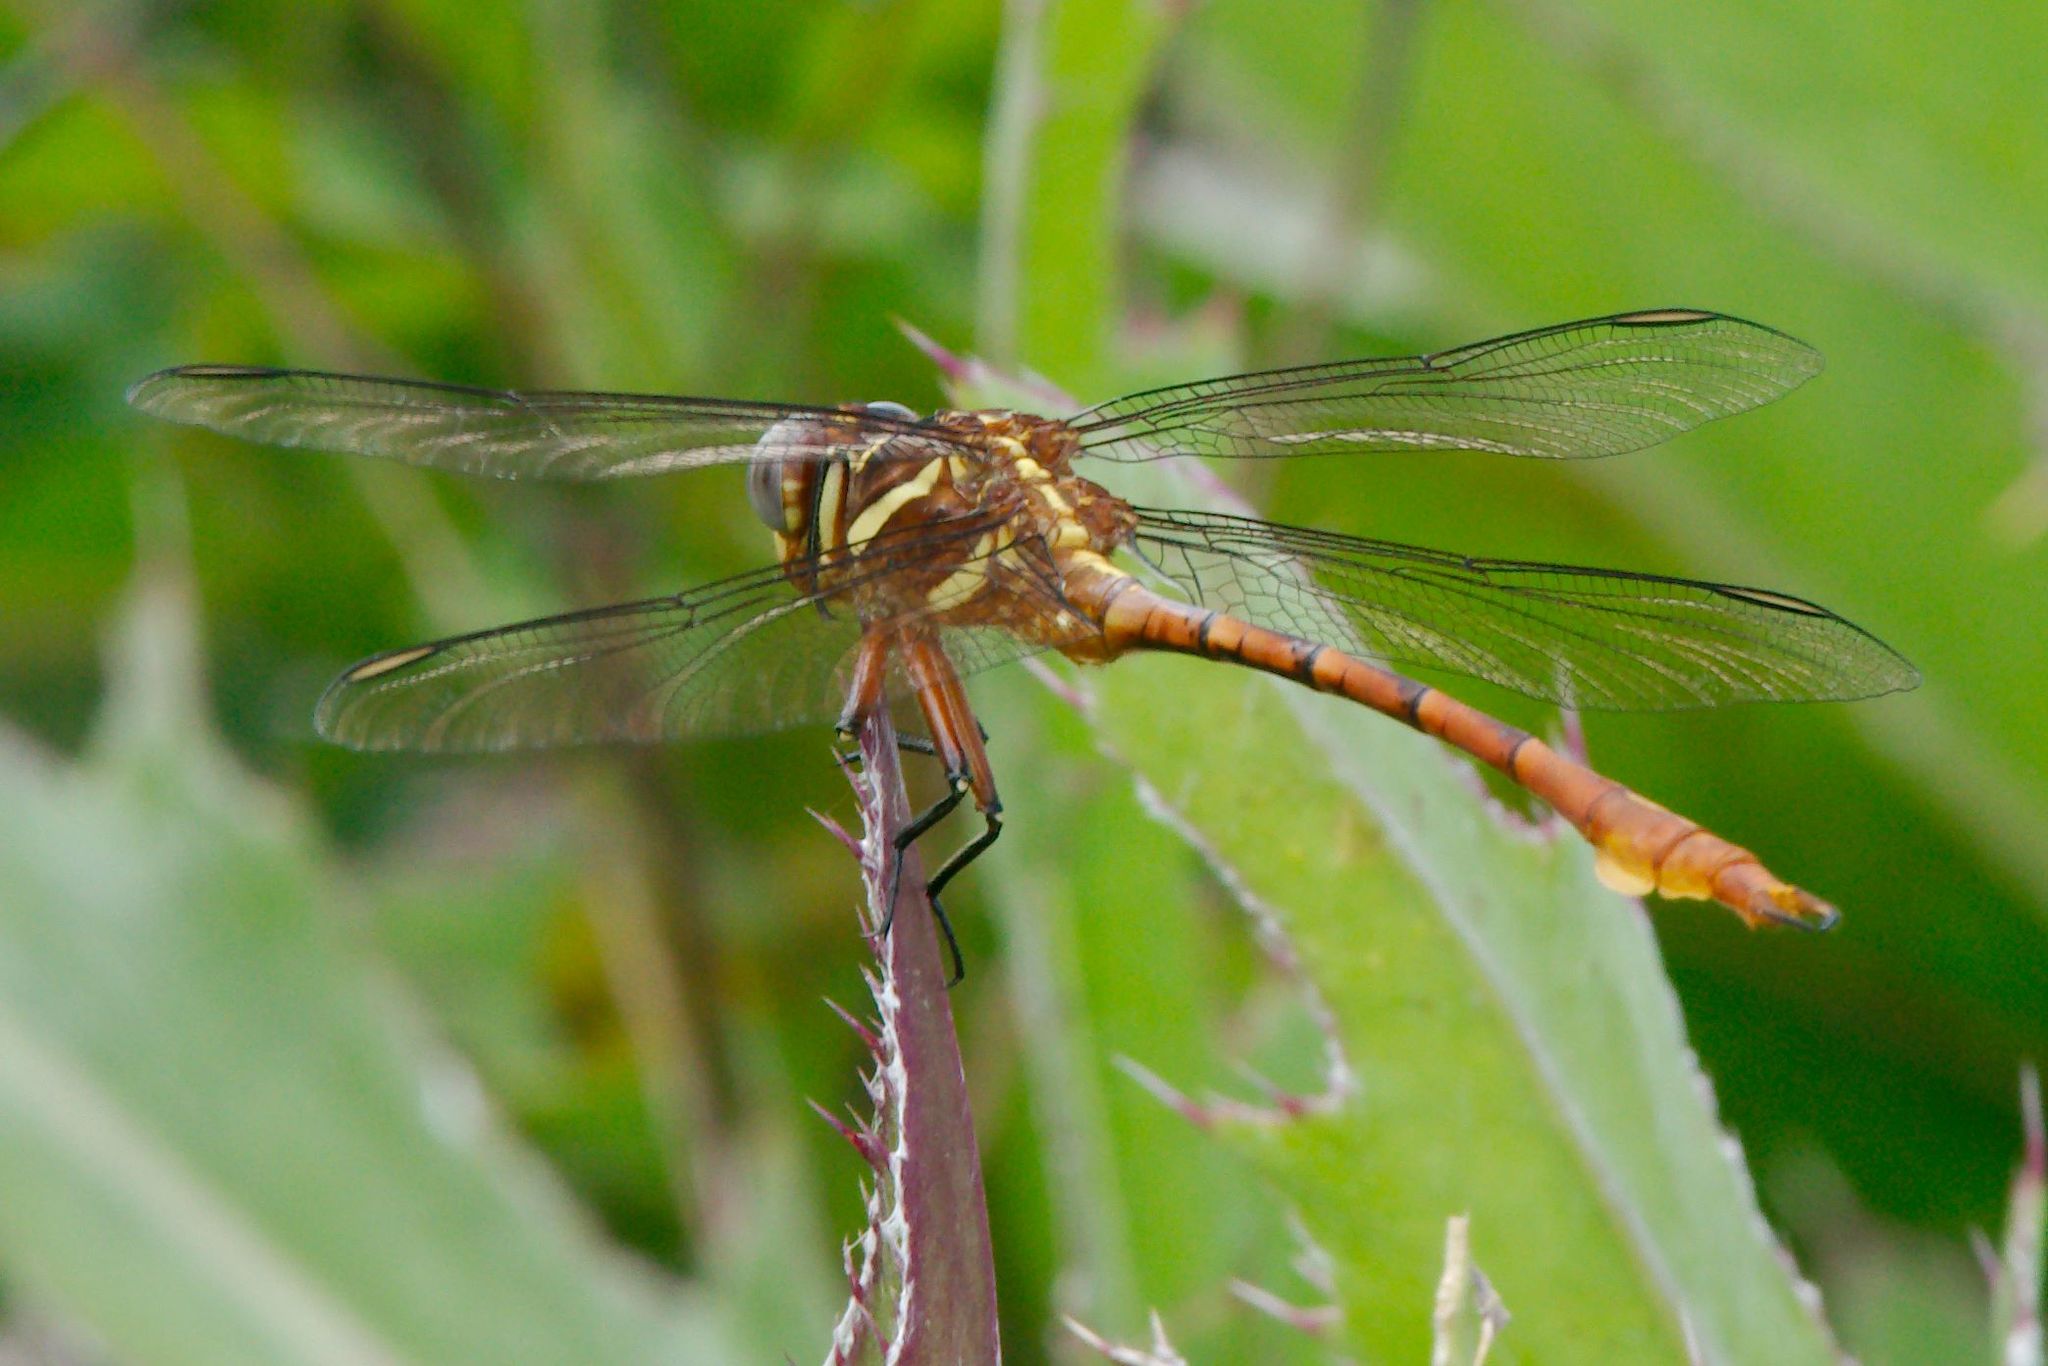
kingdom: Animalia
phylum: Arthropoda
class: Insecta
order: Odonata
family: Gomphidae
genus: Aphylla
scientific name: Aphylla williamsoni
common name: Two-striped forceptail
